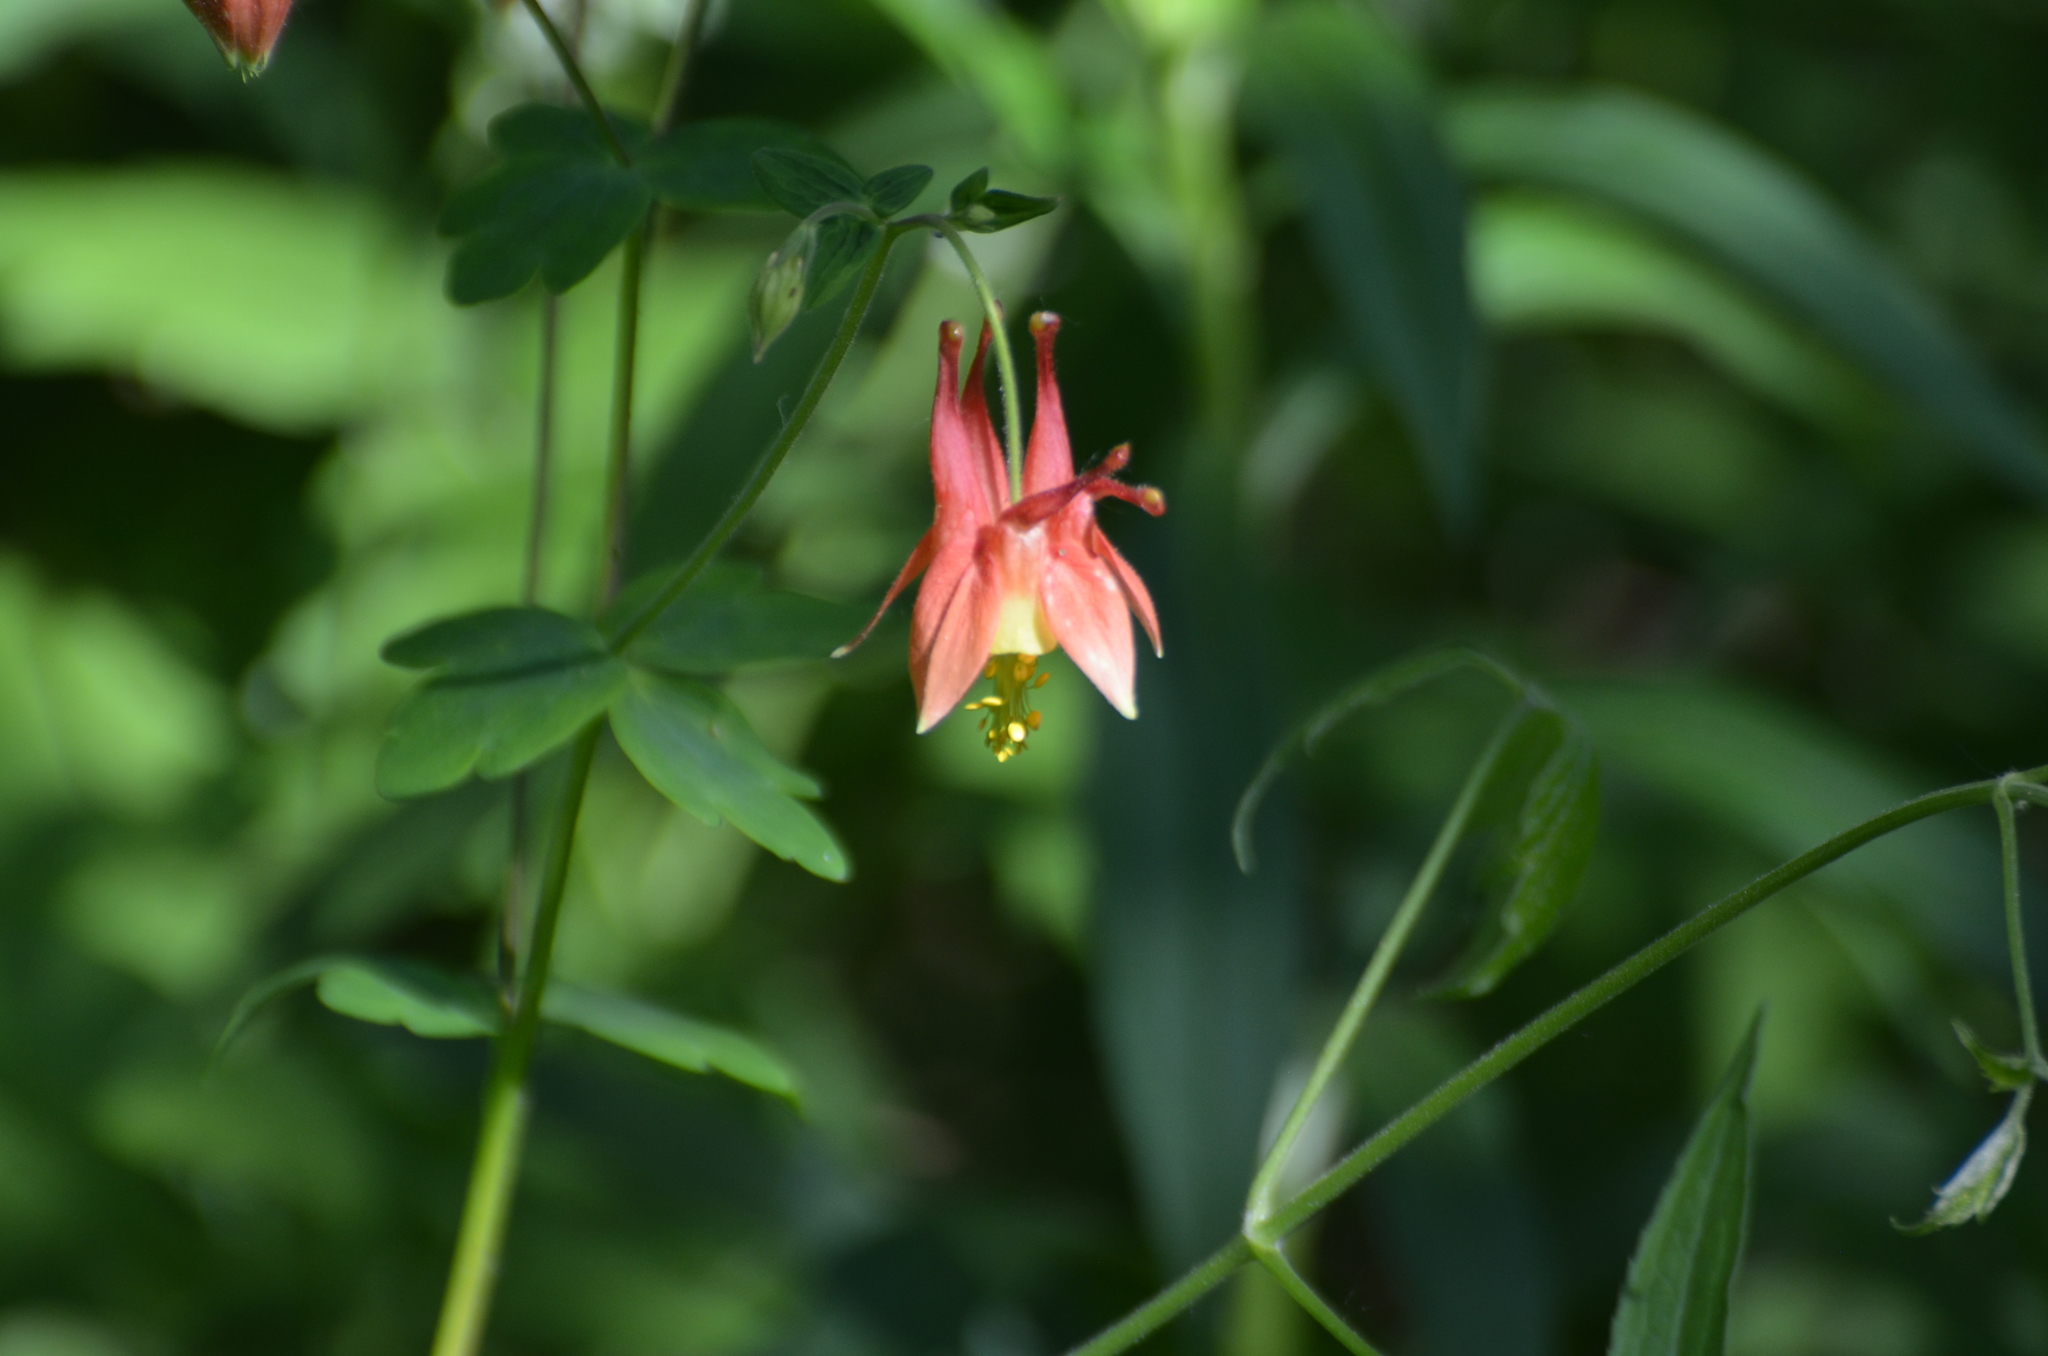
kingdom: Plantae
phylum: Tracheophyta
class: Magnoliopsida
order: Ranunculales
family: Ranunculaceae
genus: Aquilegia
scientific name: Aquilegia canadensis
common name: American columbine
